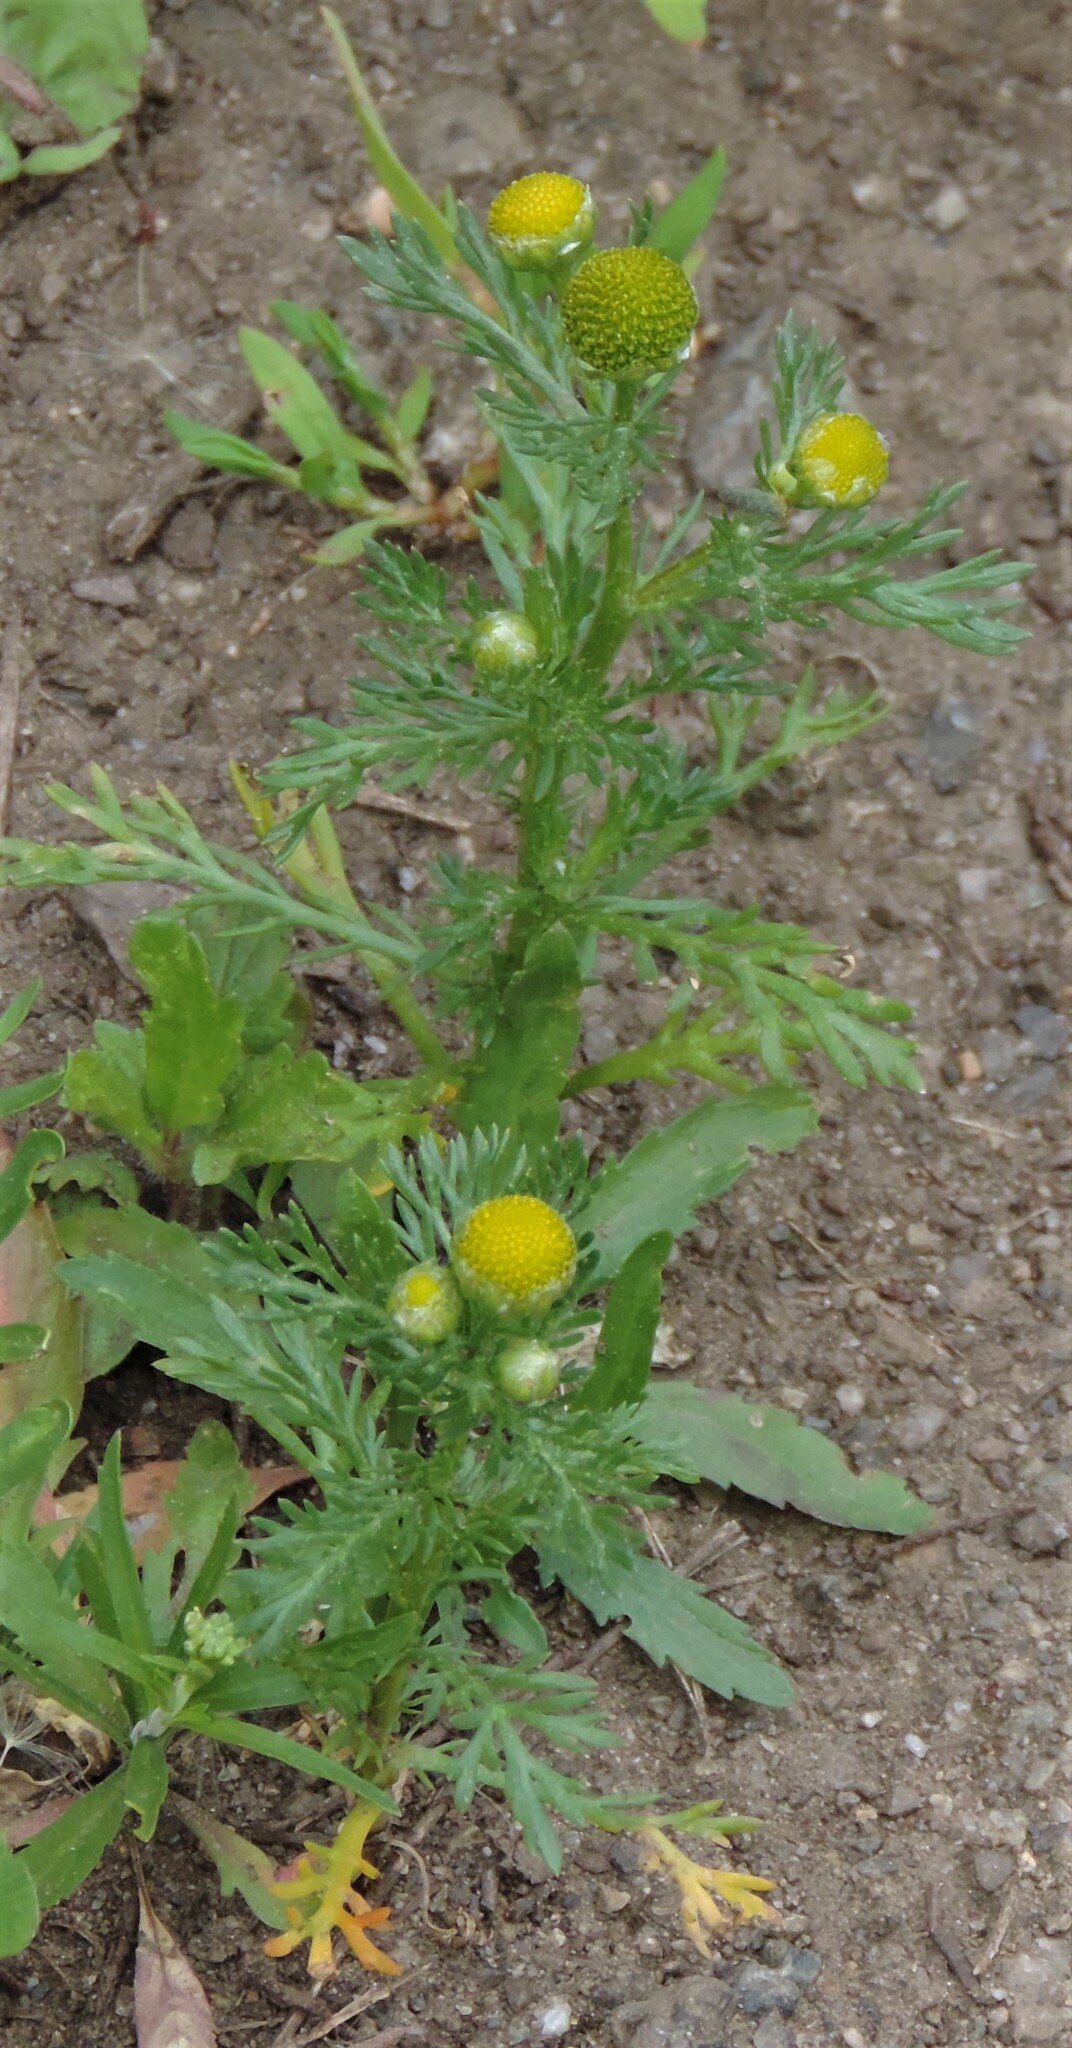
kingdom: Plantae
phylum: Tracheophyta
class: Magnoliopsida
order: Asterales
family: Asteraceae
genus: Matricaria
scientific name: Matricaria discoidea
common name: Disc mayweed
